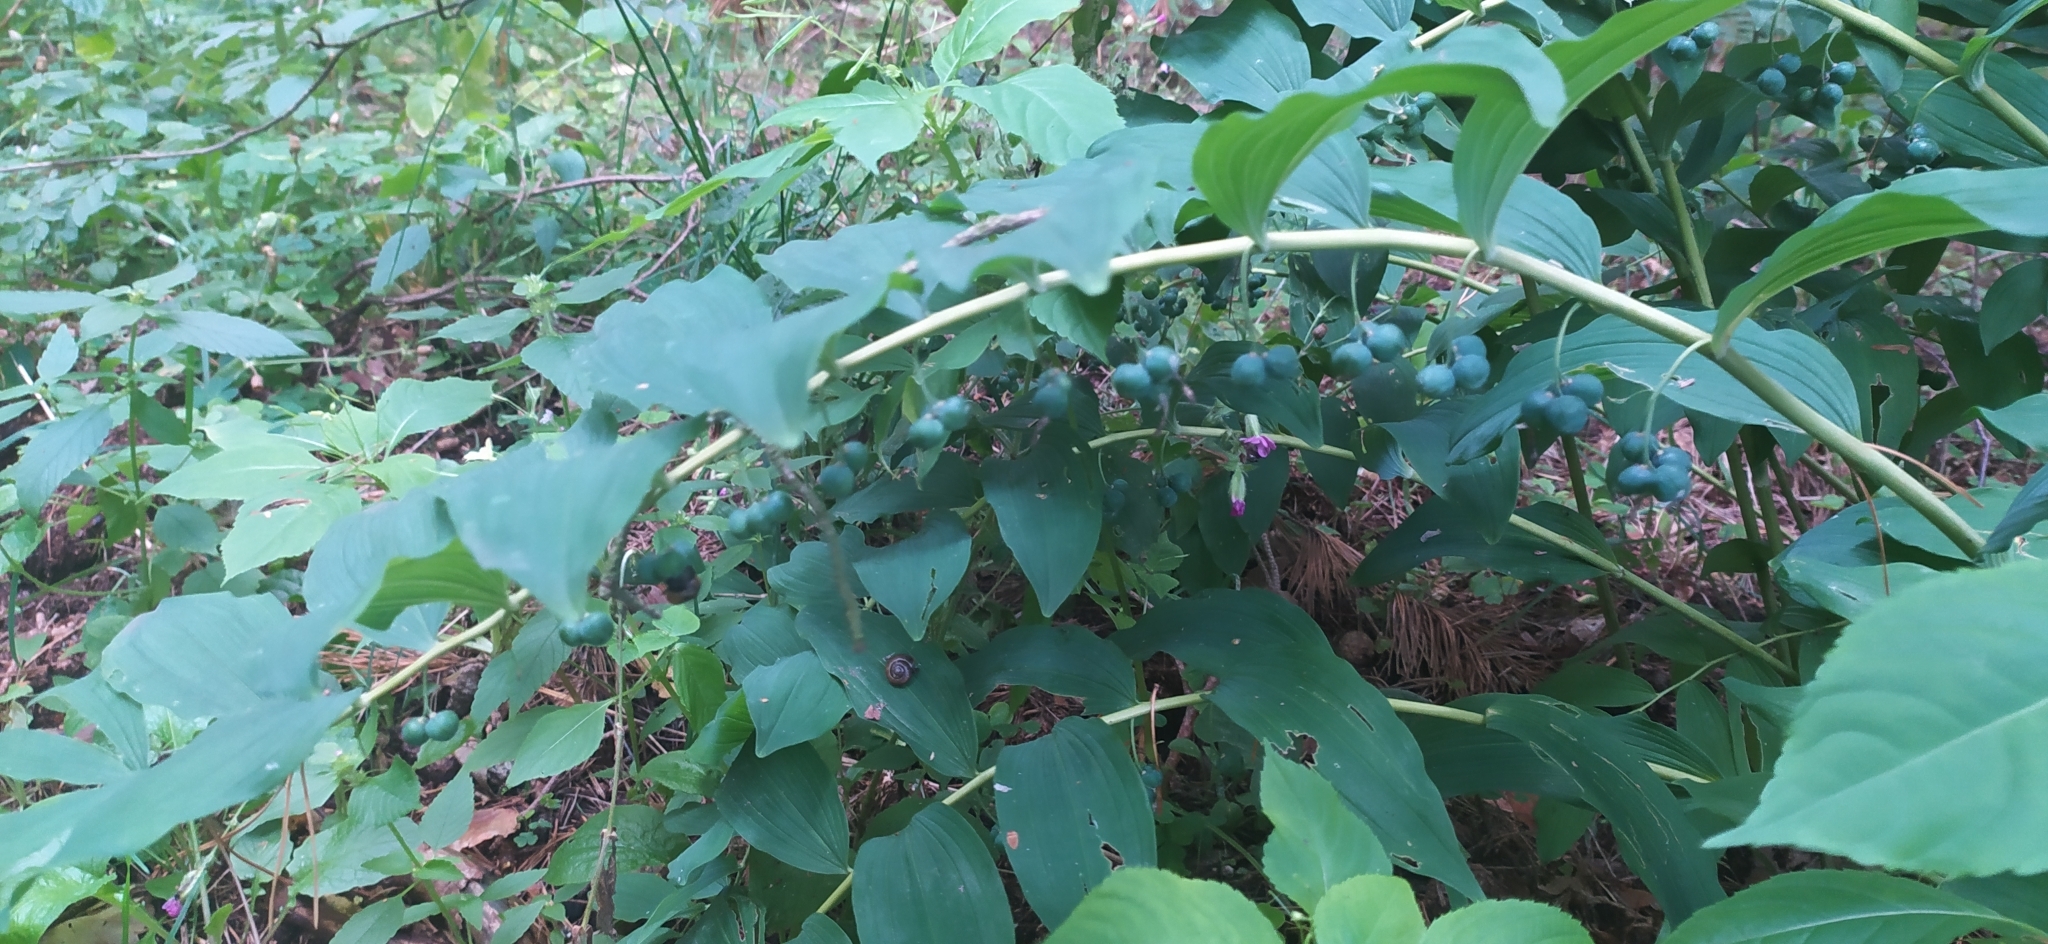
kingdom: Plantae
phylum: Tracheophyta
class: Liliopsida
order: Asparagales
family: Asparagaceae
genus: Polygonatum
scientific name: Polygonatum multiflorum
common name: Solomon's-seal
